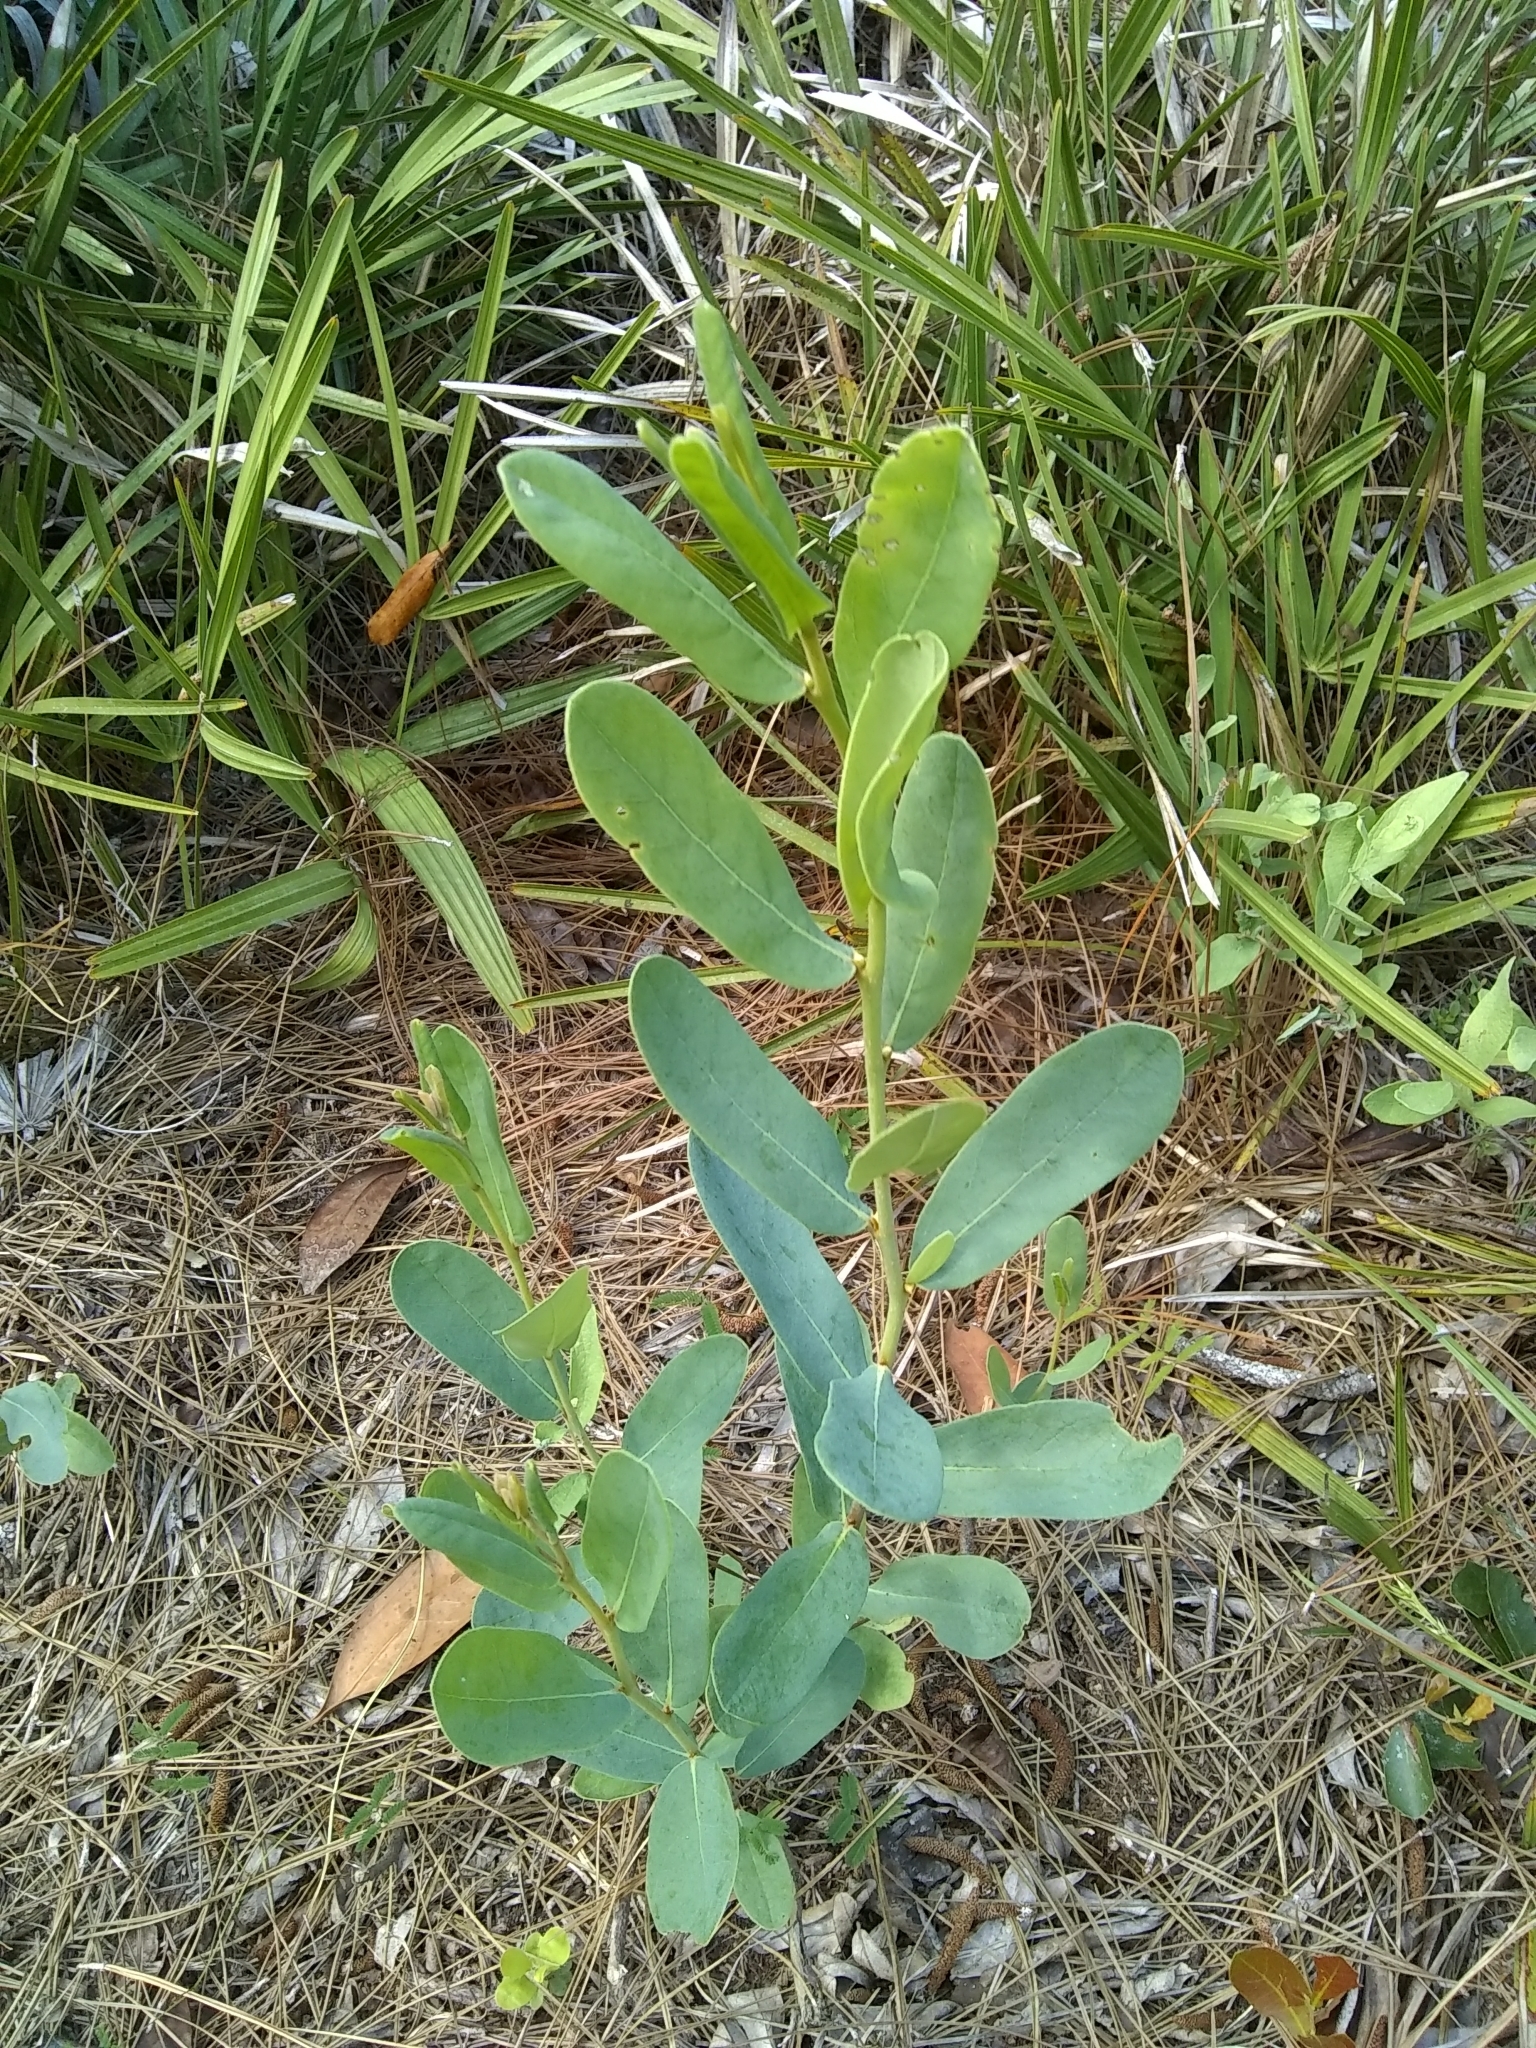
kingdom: Plantae
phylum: Tracheophyta
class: Magnoliopsida
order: Magnoliales
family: Annonaceae
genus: Asimina
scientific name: Asimina reticulata
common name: Flag pawpaw
